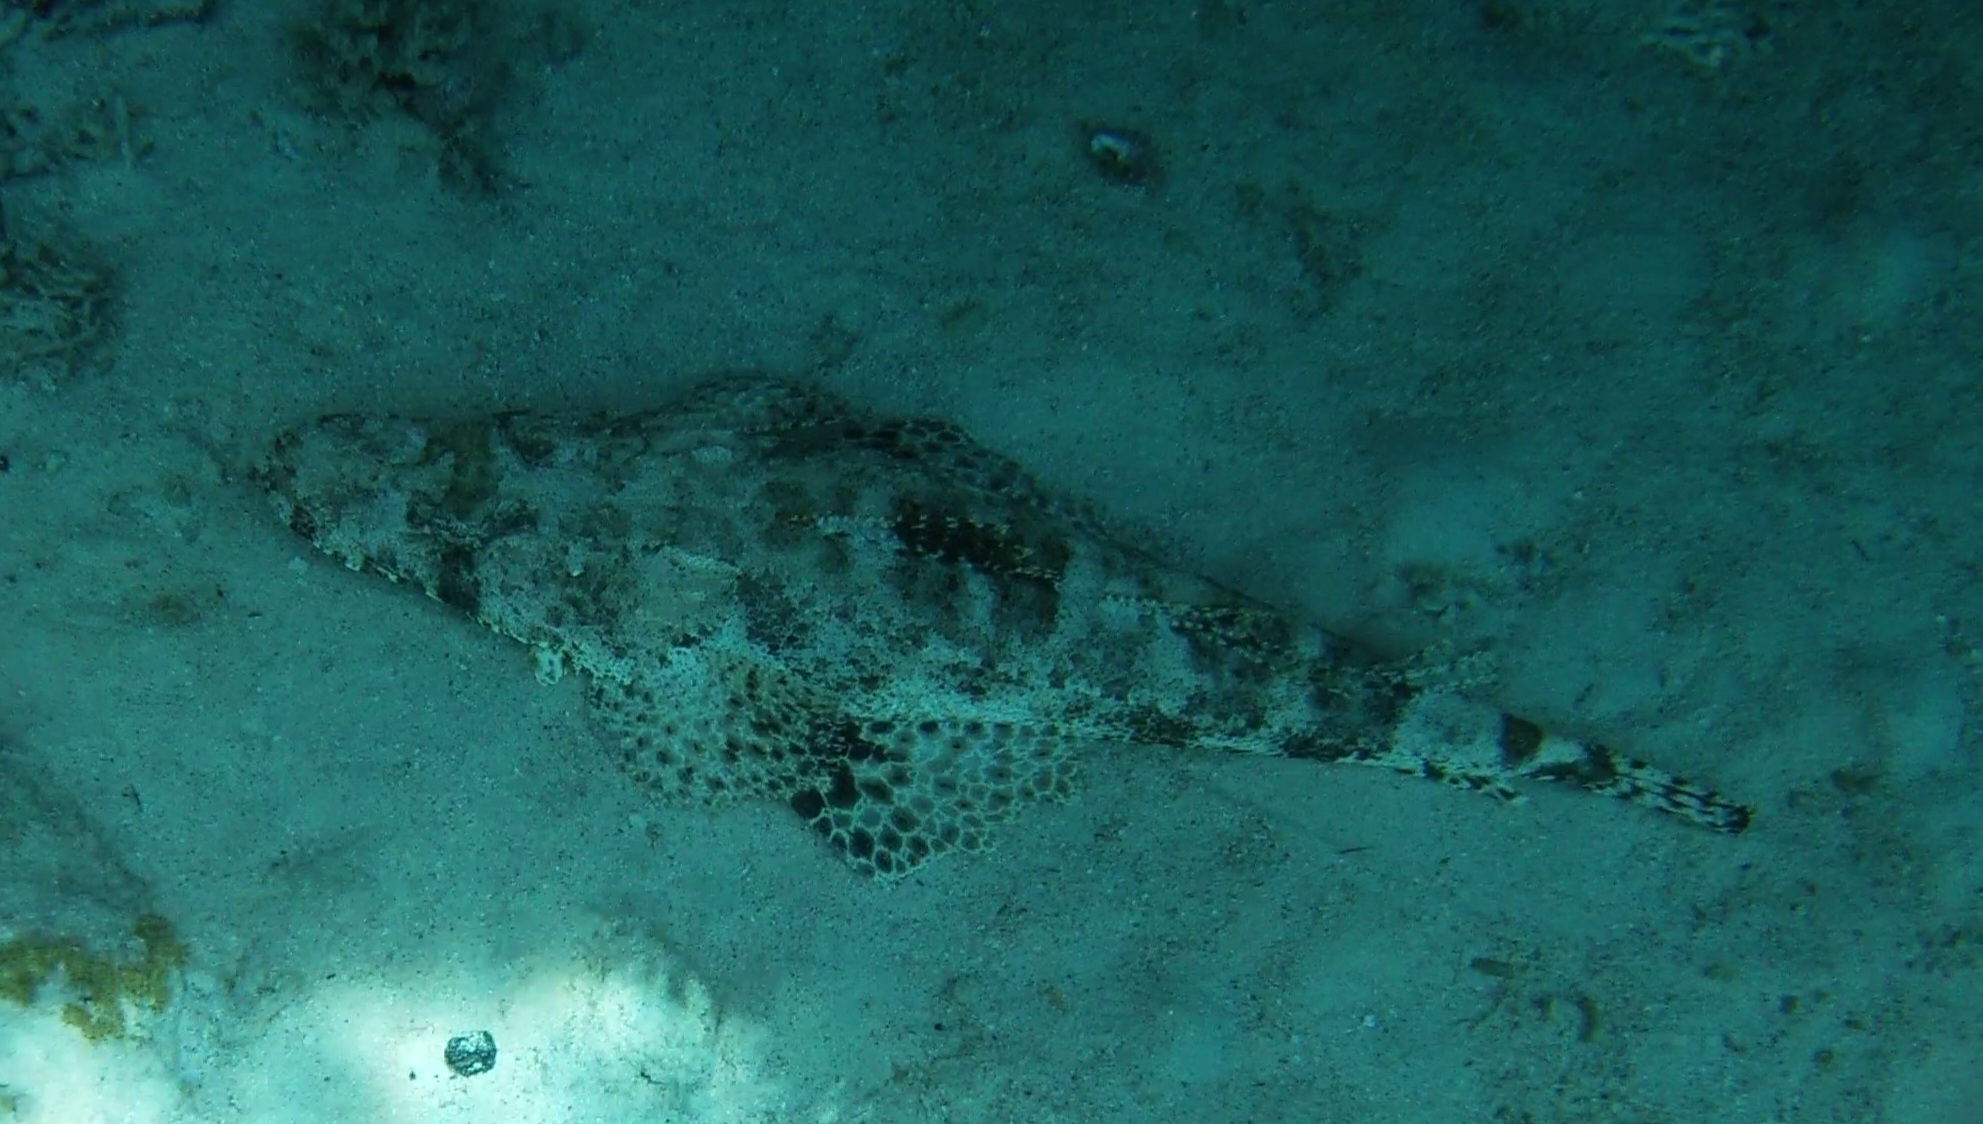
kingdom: Animalia
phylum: Chordata
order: Scorpaeniformes
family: Platycephalidae
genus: Papilloculiceps
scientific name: Papilloculiceps longiceps
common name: Tentacled flathead
